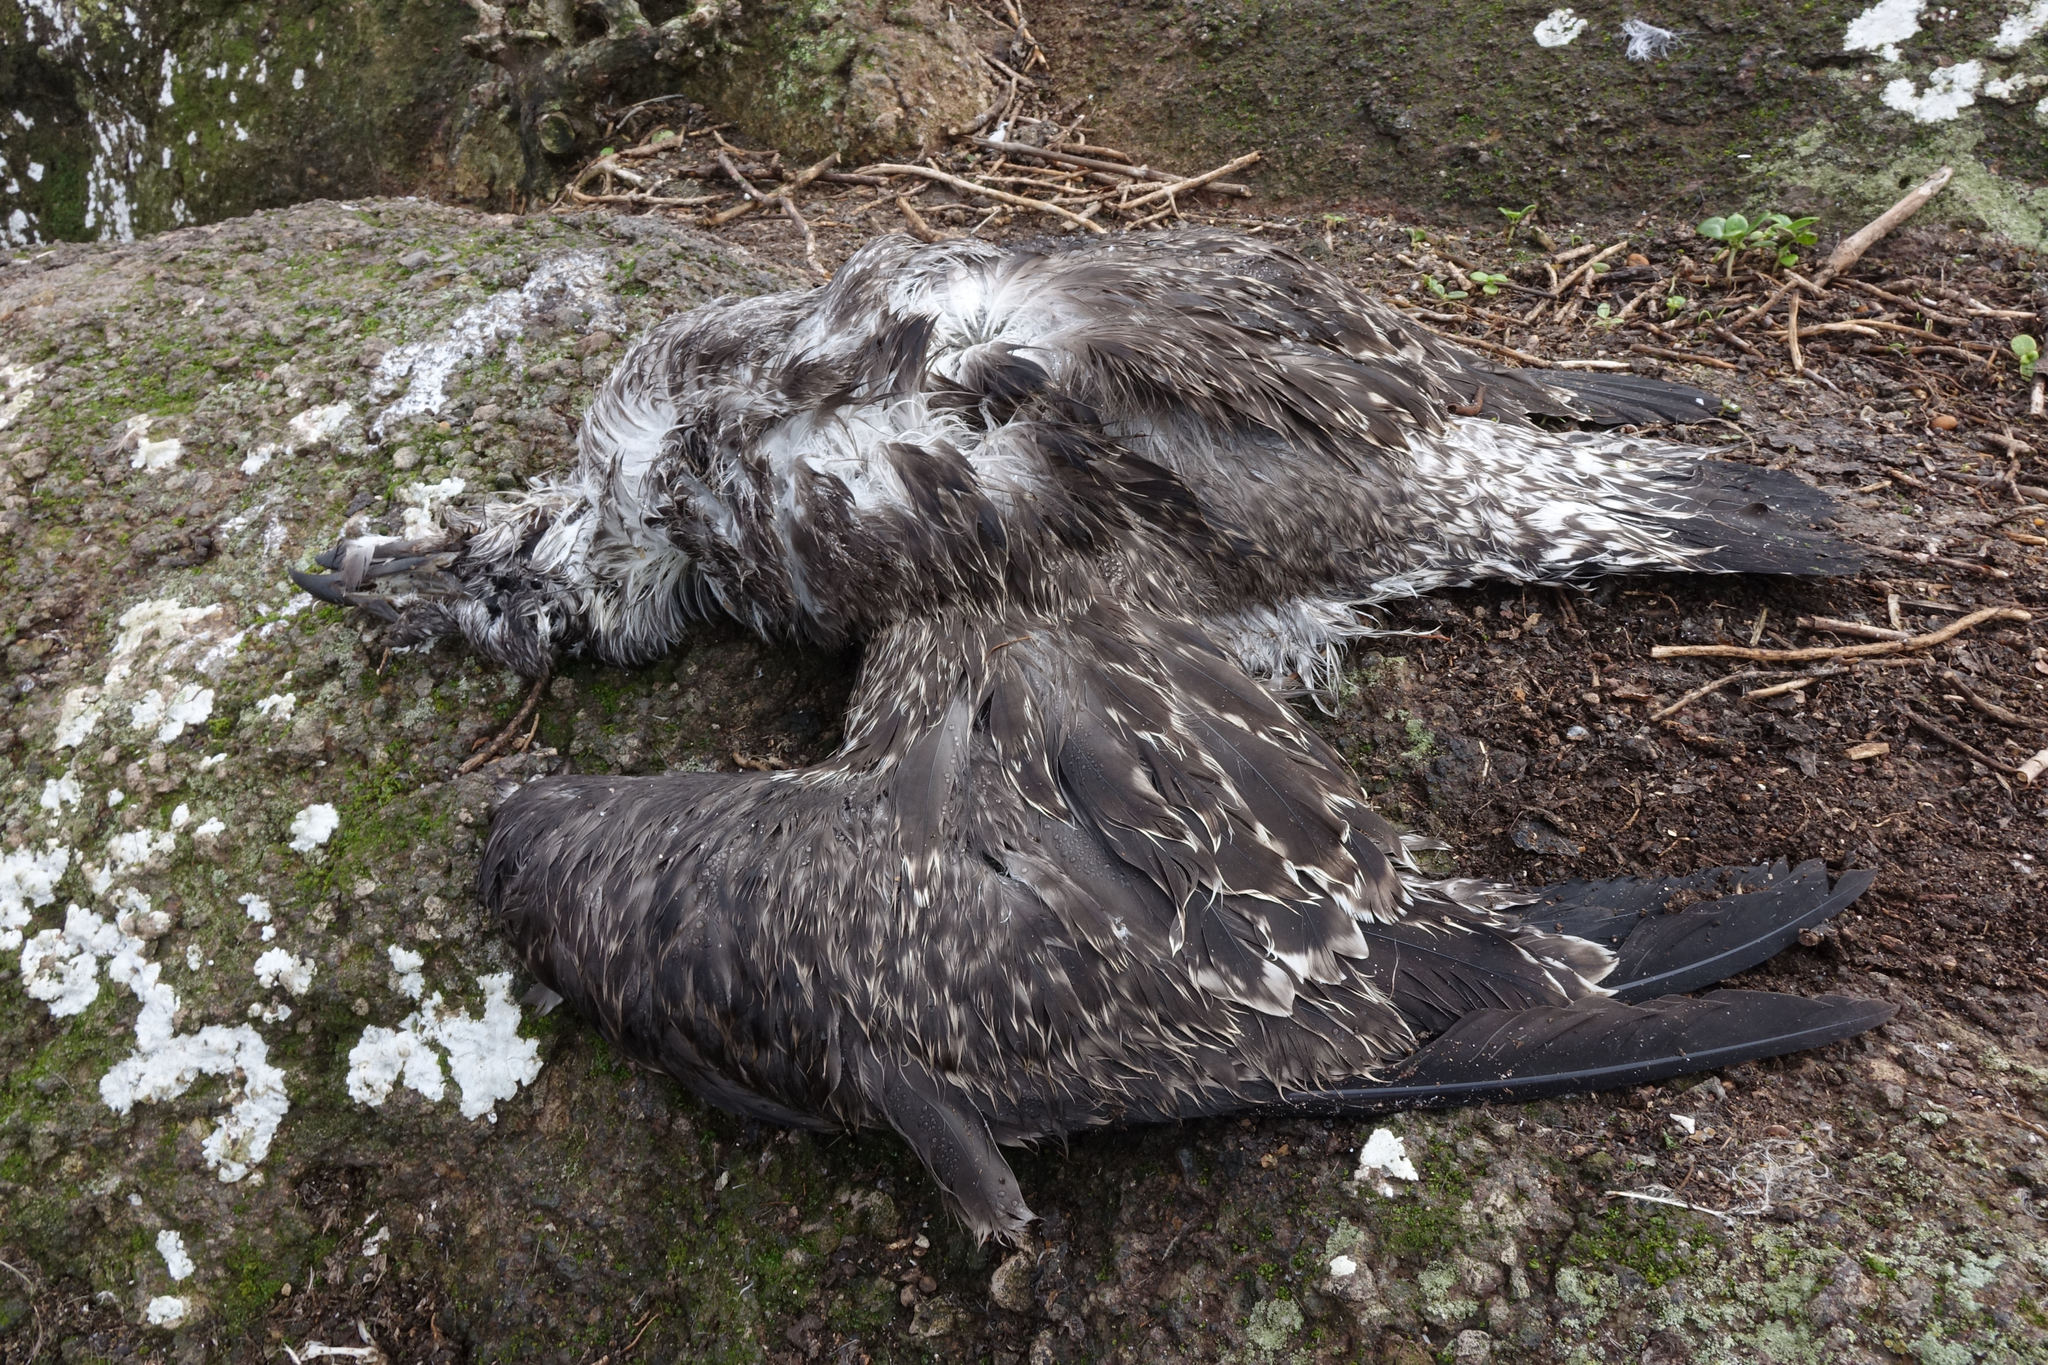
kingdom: Animalia
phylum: Chordata
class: Aves
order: Charadriiformes
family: Laridae
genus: Larus
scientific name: Larus dominicanus
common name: Kelp gull
